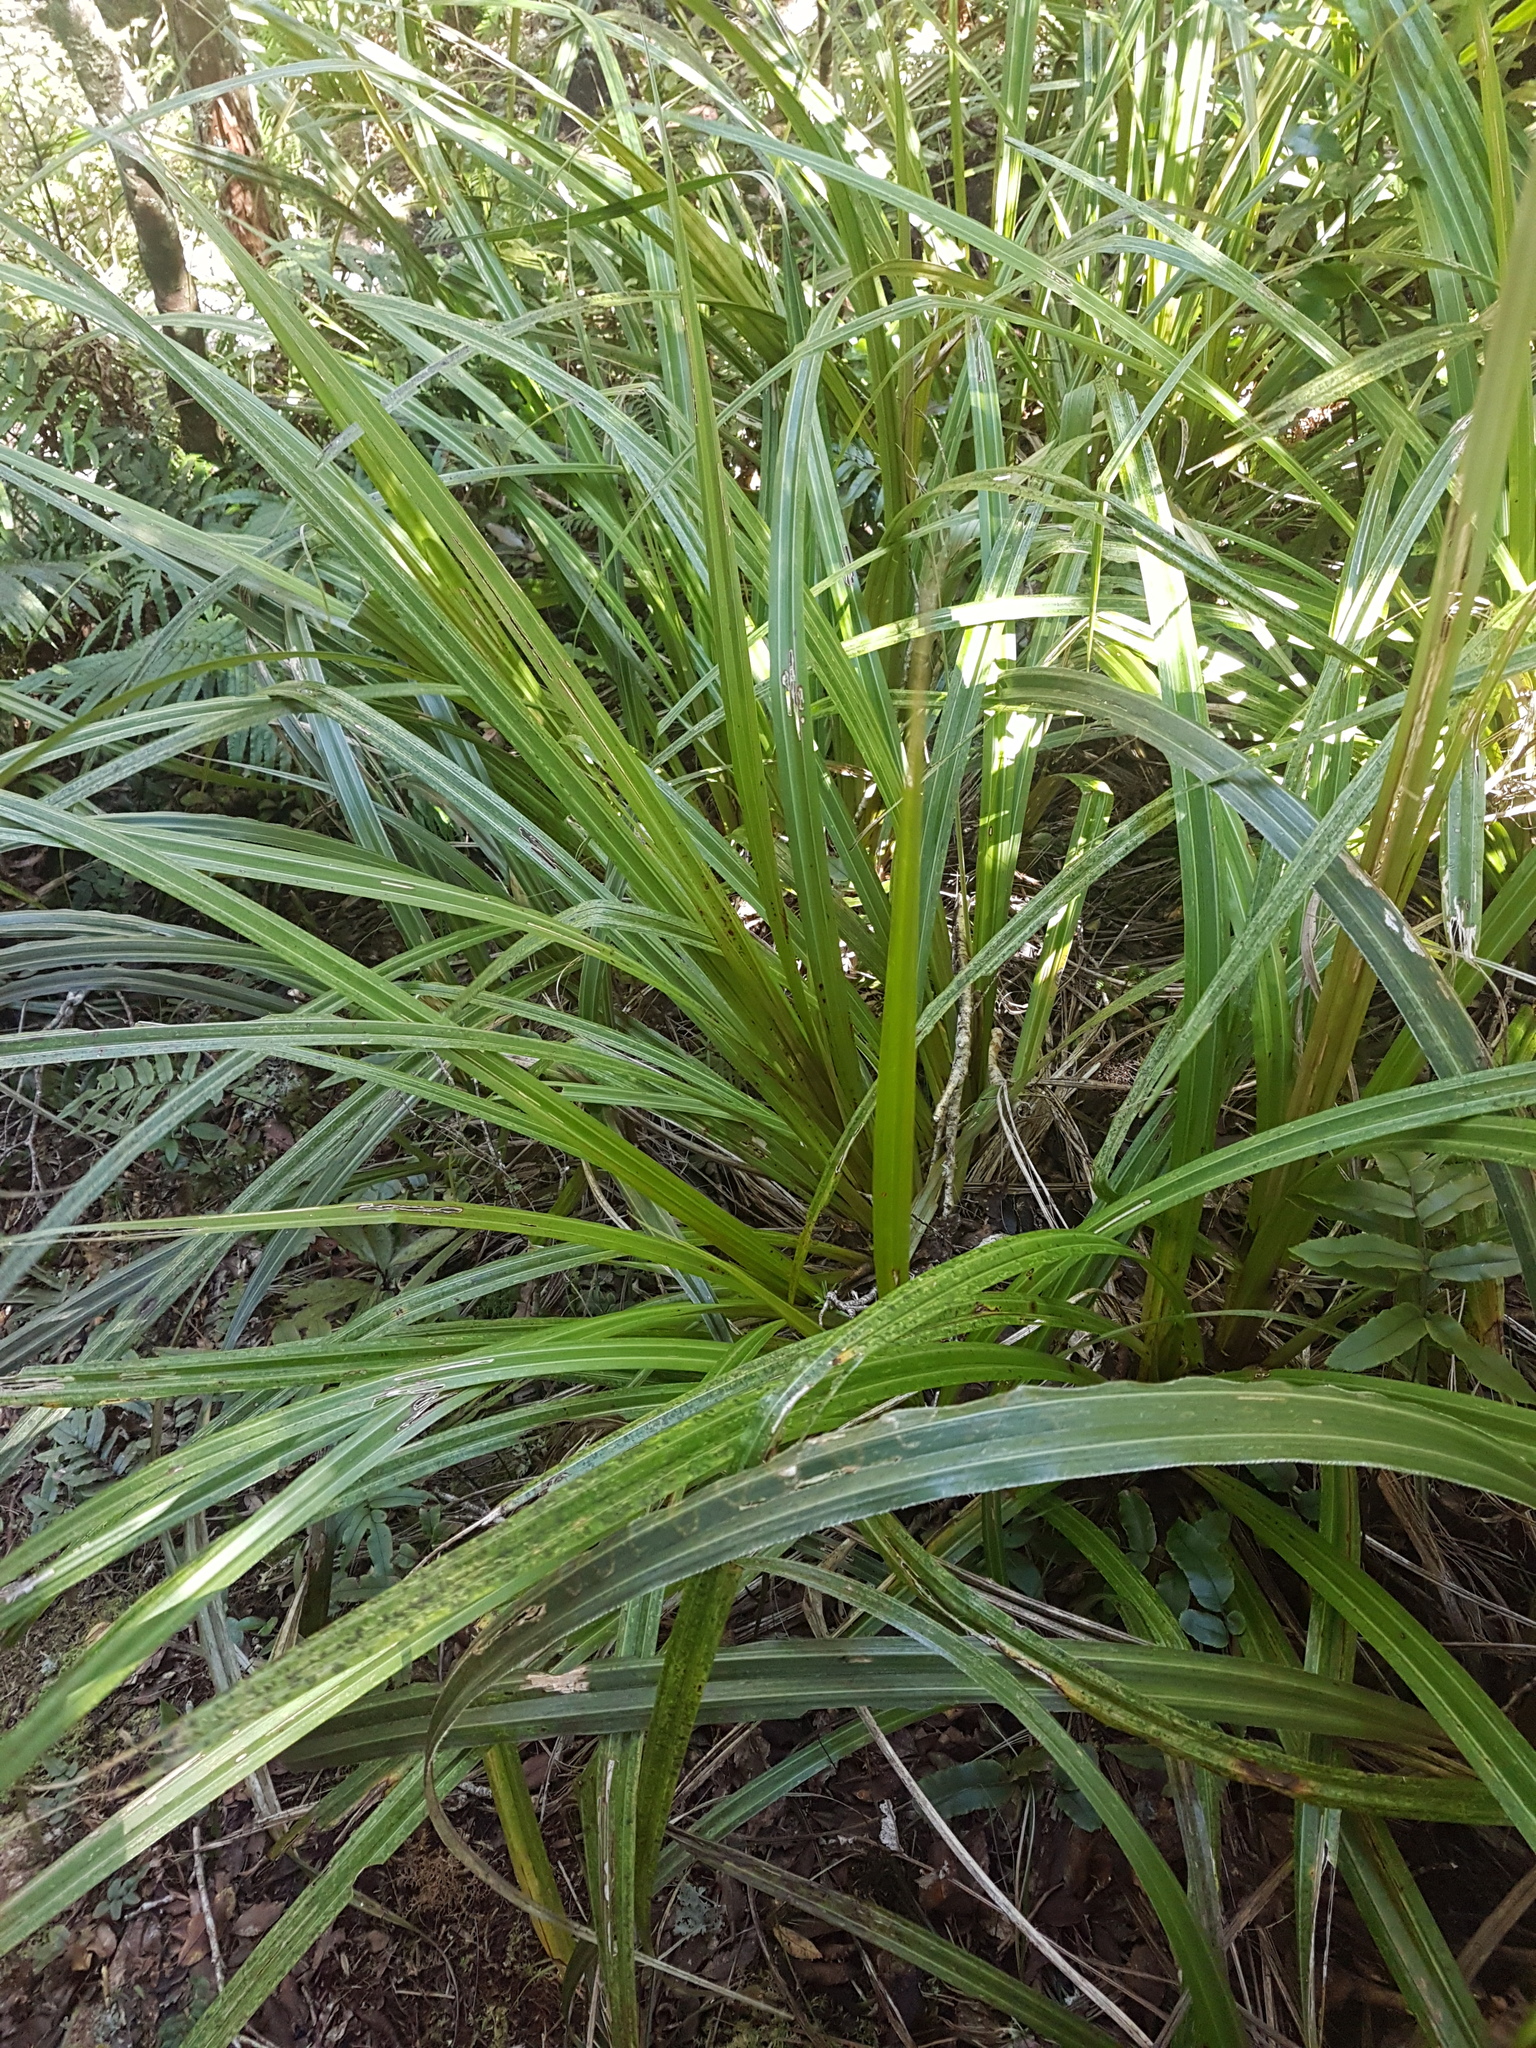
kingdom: Plantae
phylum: Tracheophyta
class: Liliopsida
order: Asparagales
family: Asteliaceae
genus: Astelia
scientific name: Astelia fragrans
